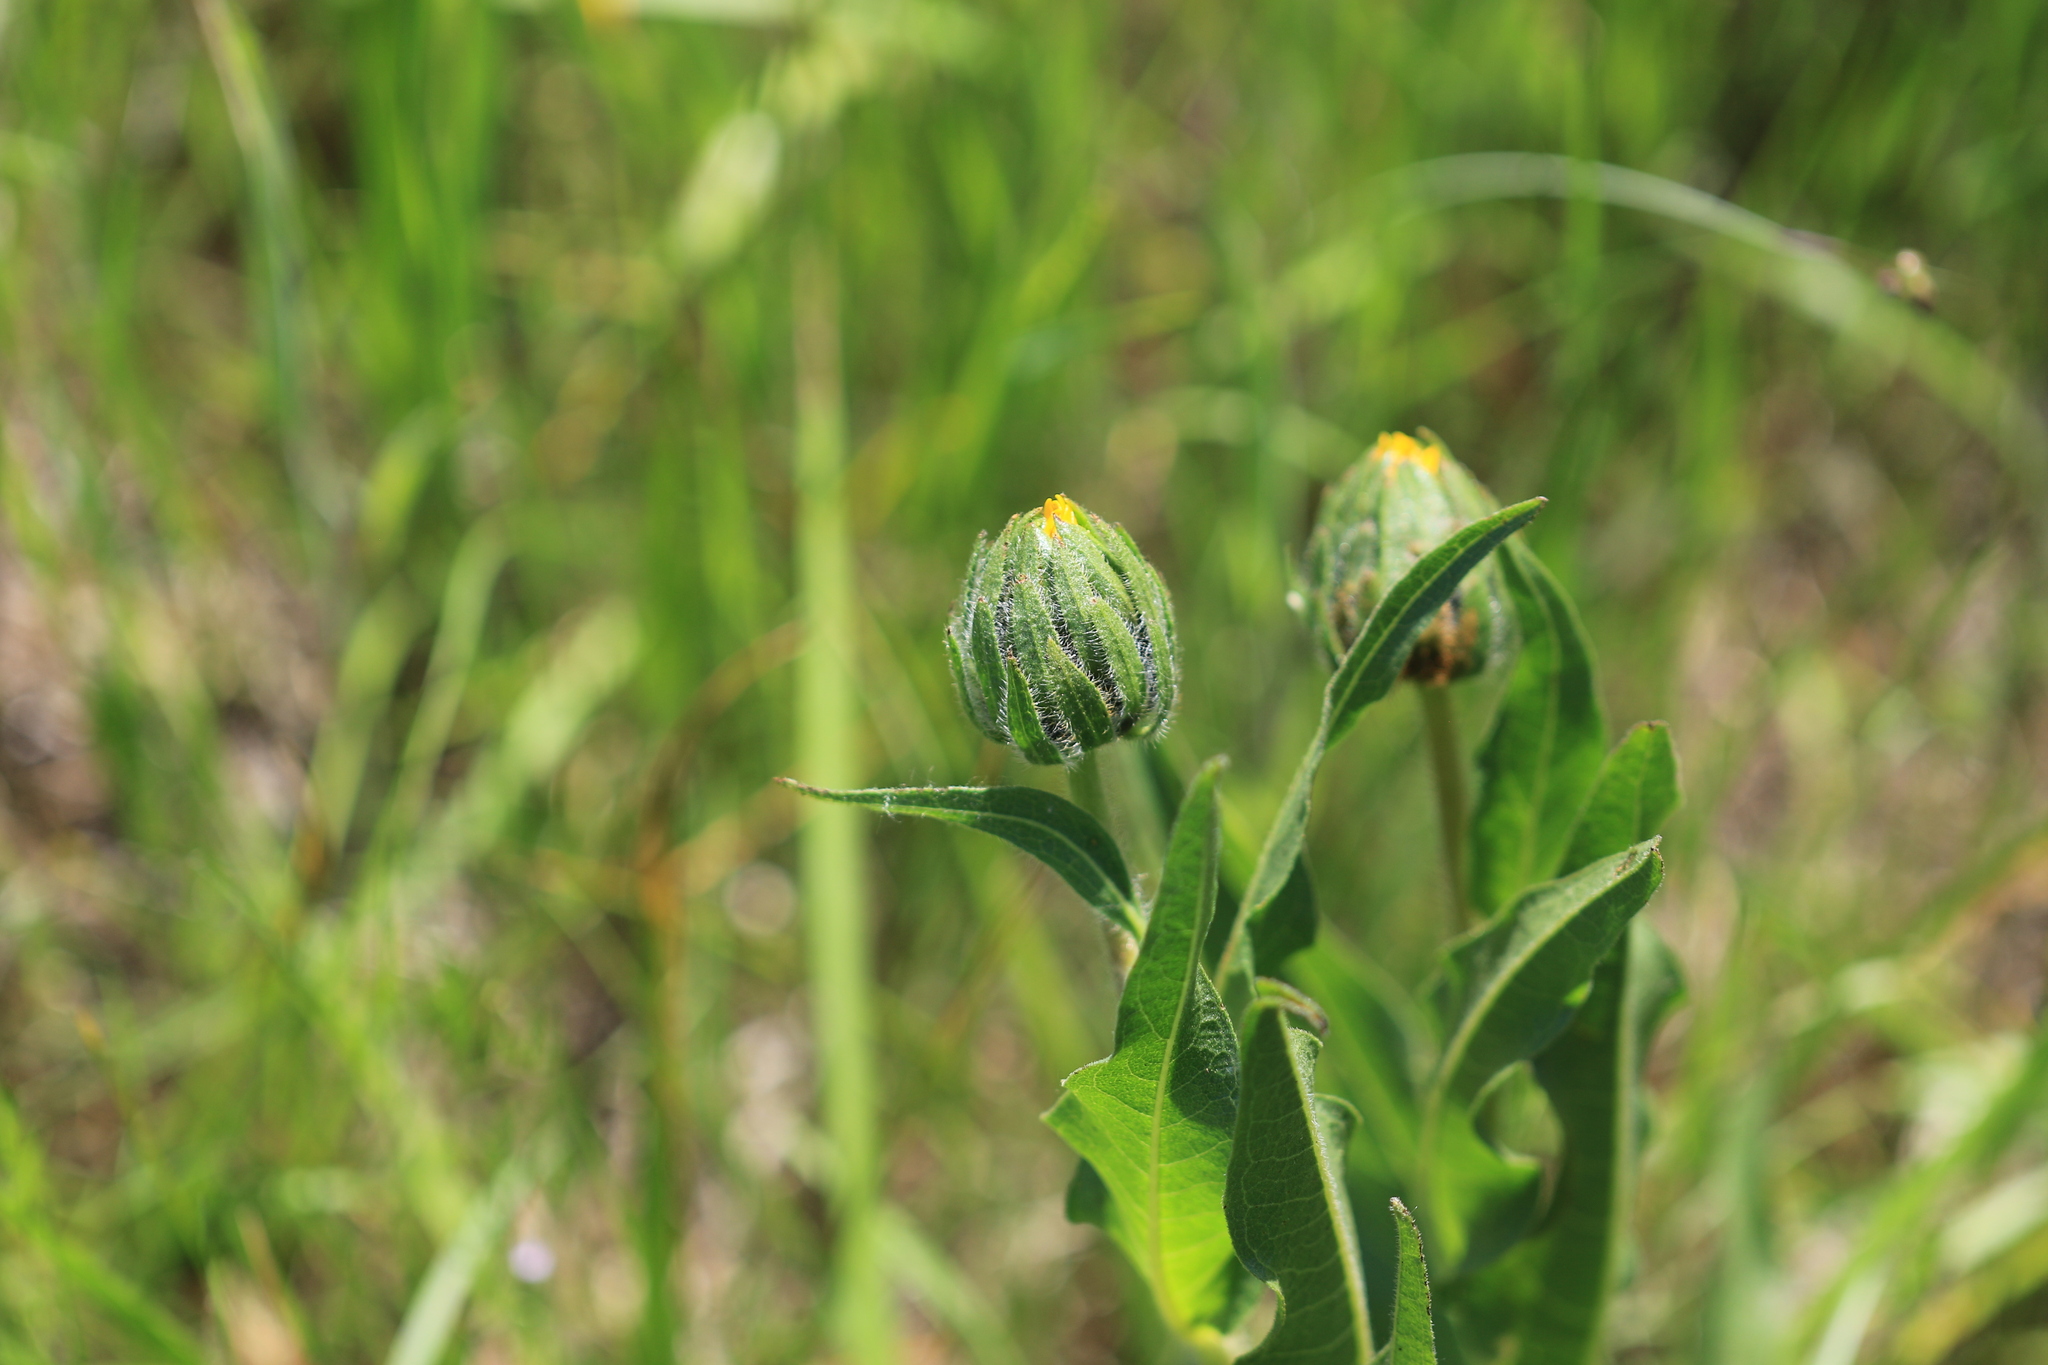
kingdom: Plantae
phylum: Tracheophyta
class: Magnoliopsida
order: Asterales
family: Asteraceae
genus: Wyethia
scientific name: Wyethia angustifolia
